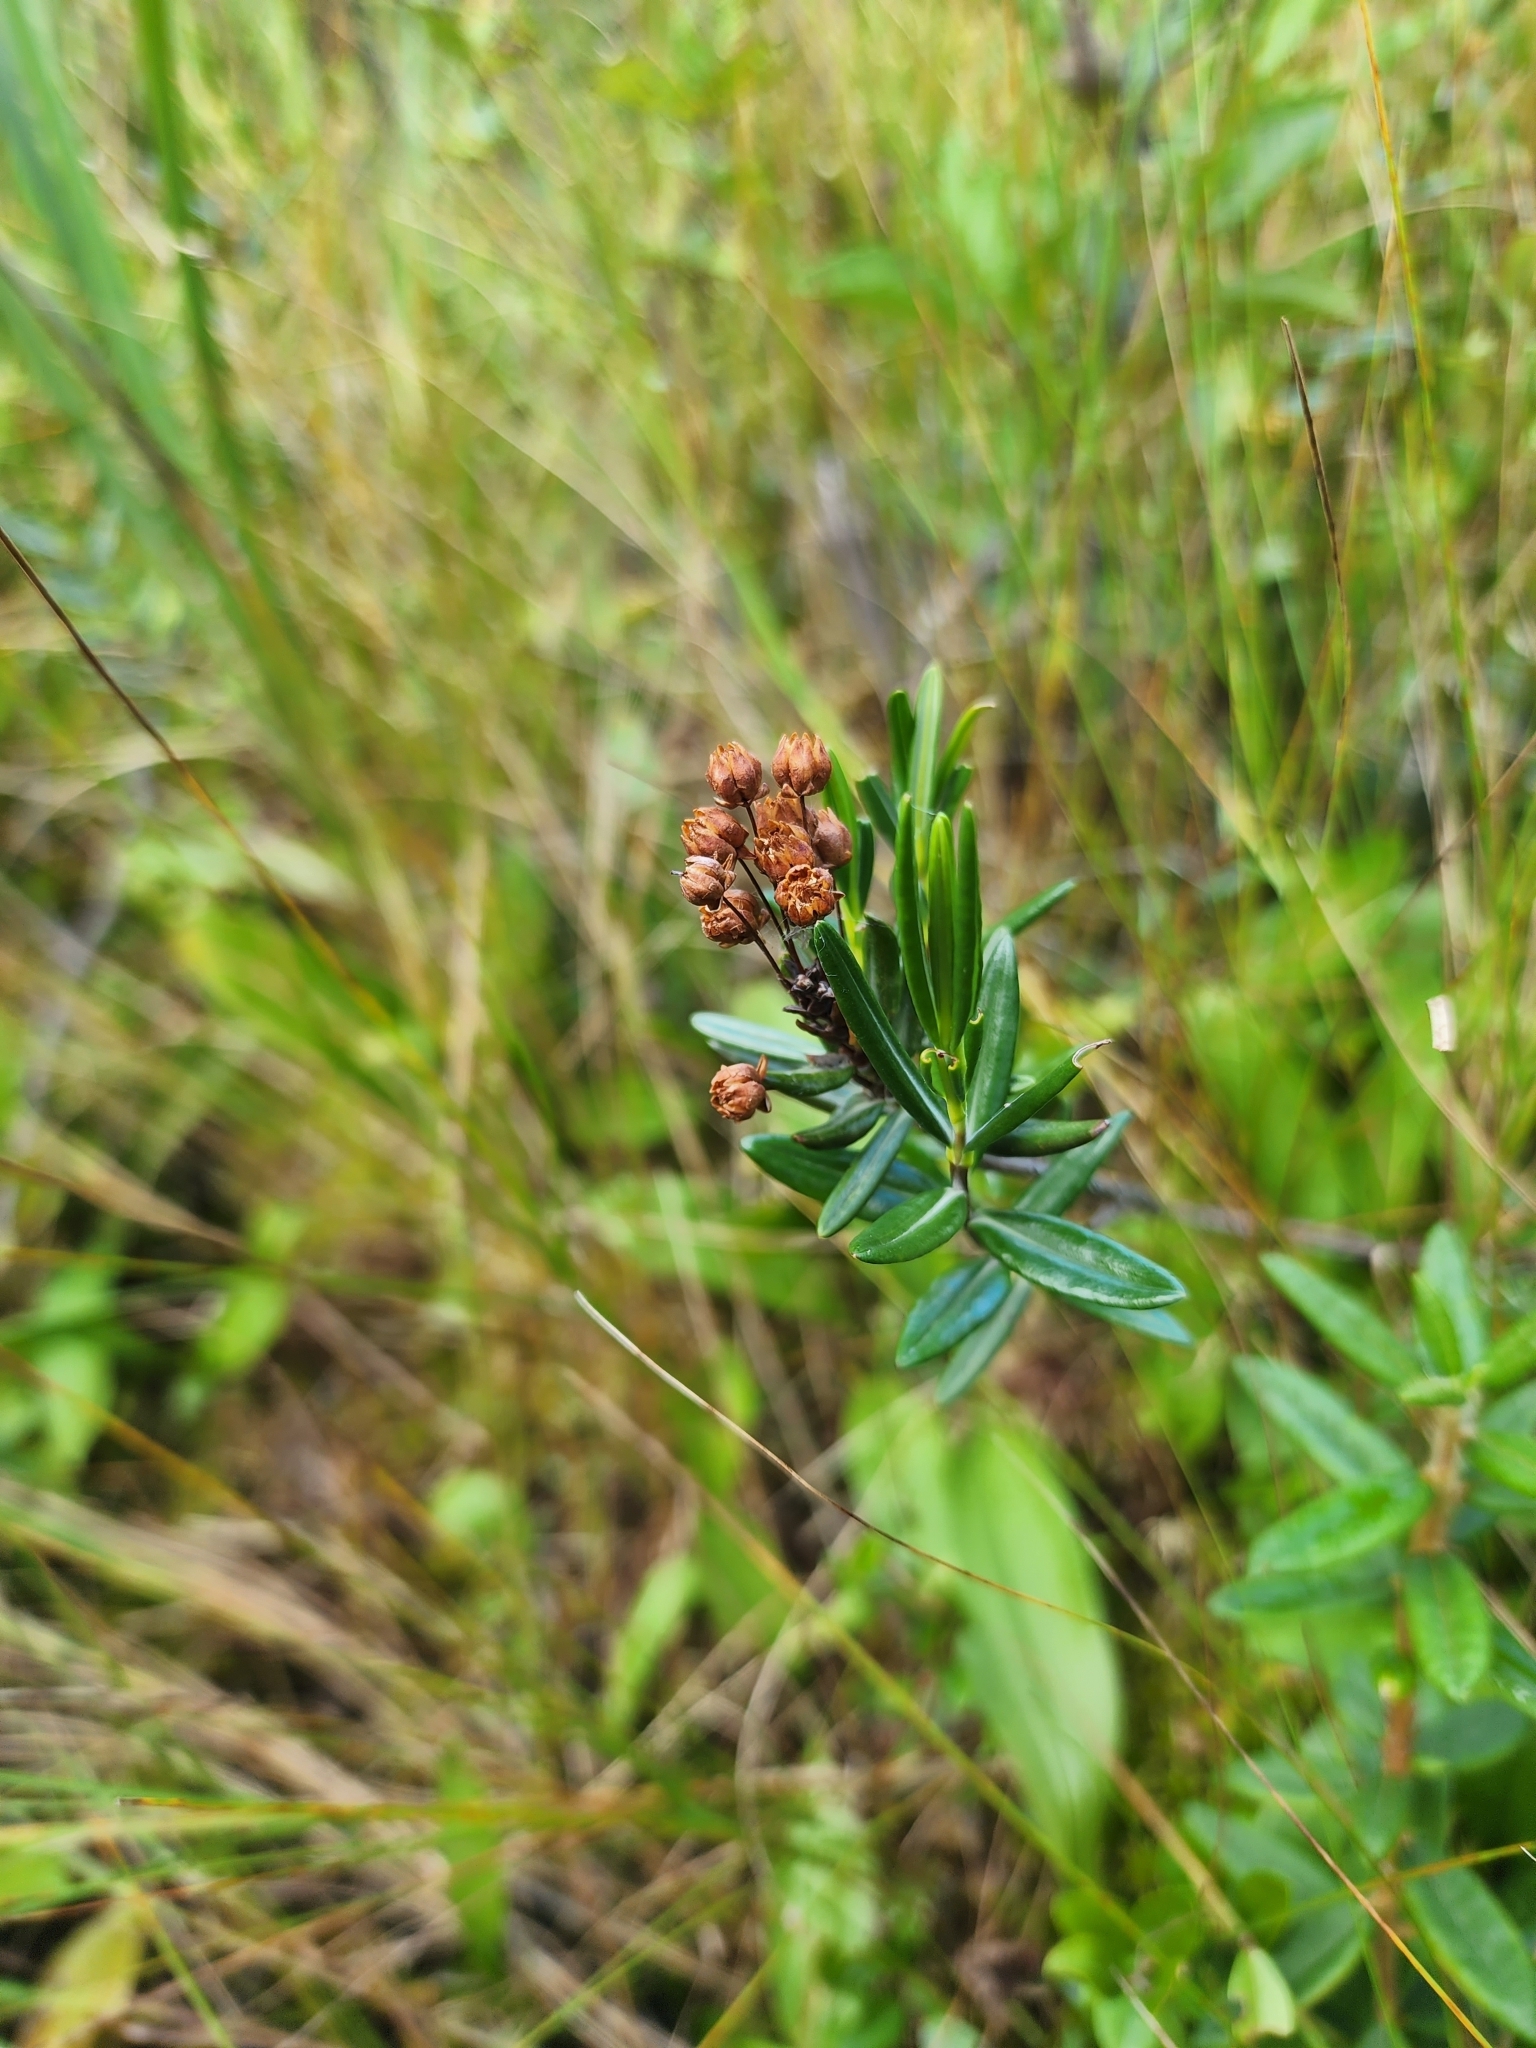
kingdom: Plantae
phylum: Tracheophyta
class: Magnoliopsida
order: Ericales
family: Ericaceae
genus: Kalmia
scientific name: Kalmia polifolia
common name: Bog-laurel
